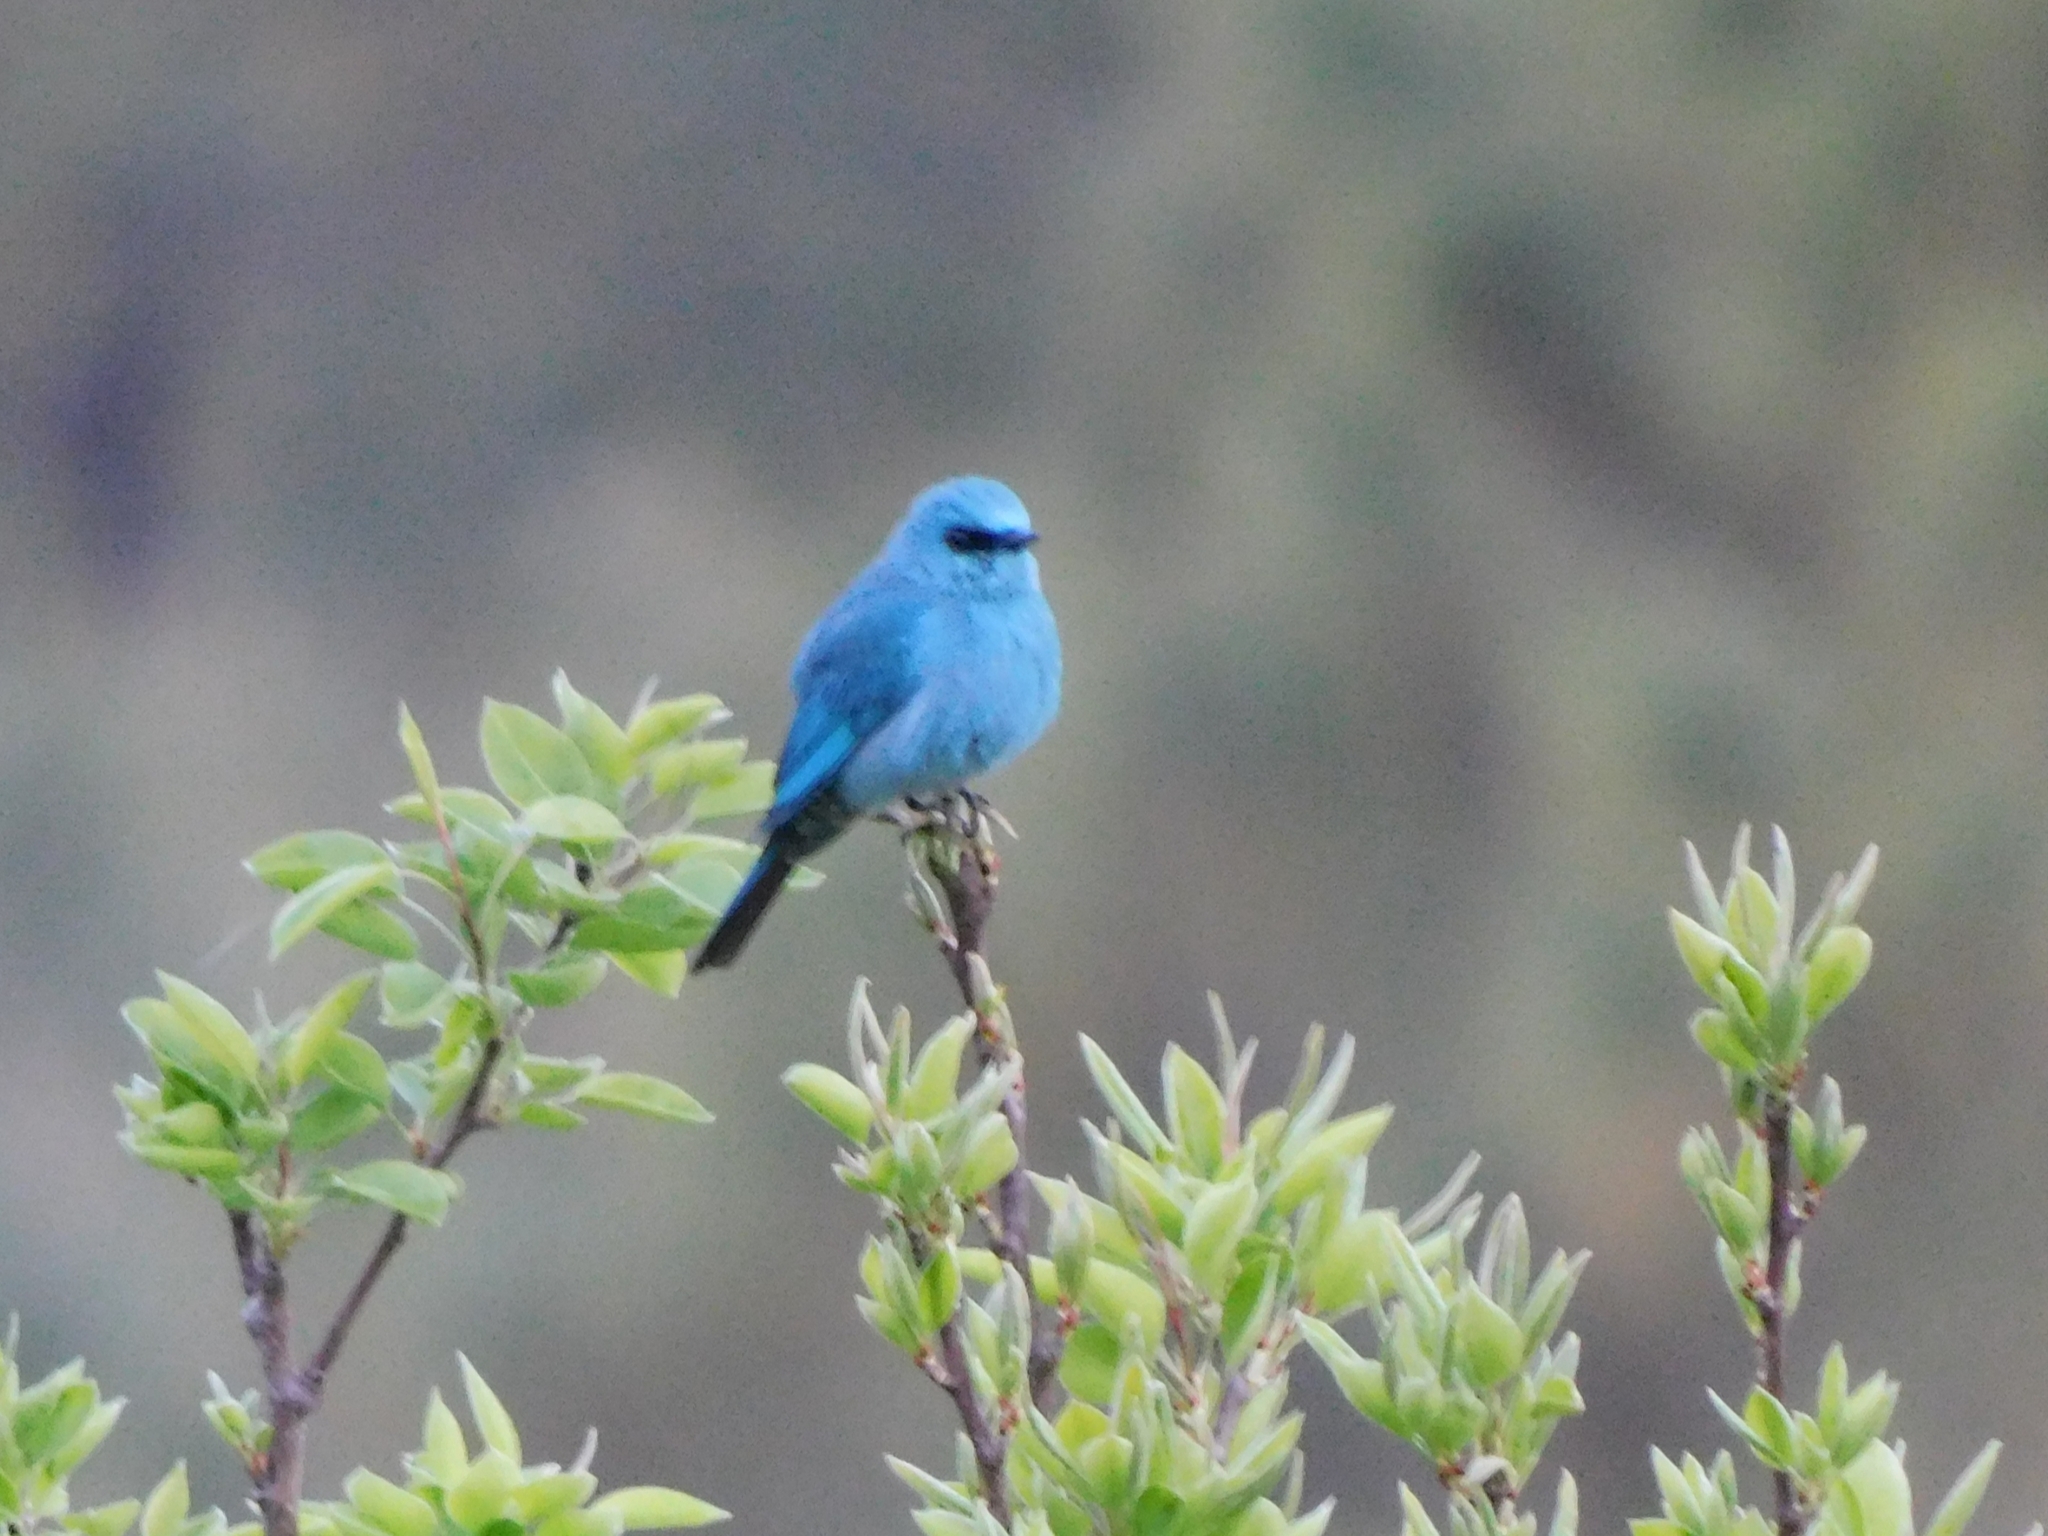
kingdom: Animalia
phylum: Chordata
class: Aves
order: Passeriformes
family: Muscicapidae
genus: Eumyias
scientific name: Eumyias thalassinus
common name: Verditer flycatcher
